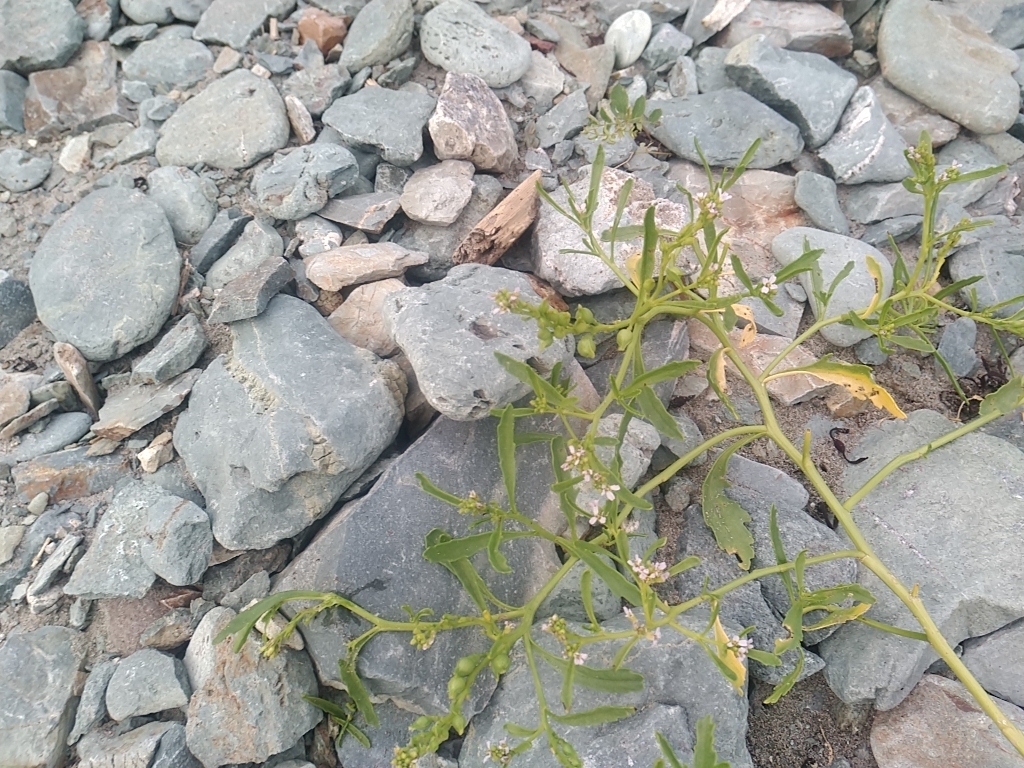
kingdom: Plantae
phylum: Tracheophyta
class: Magnoliopsida
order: Brassicales
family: Brassicaceae
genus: Cakile
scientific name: Cakile edentula
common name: American sea rocket
